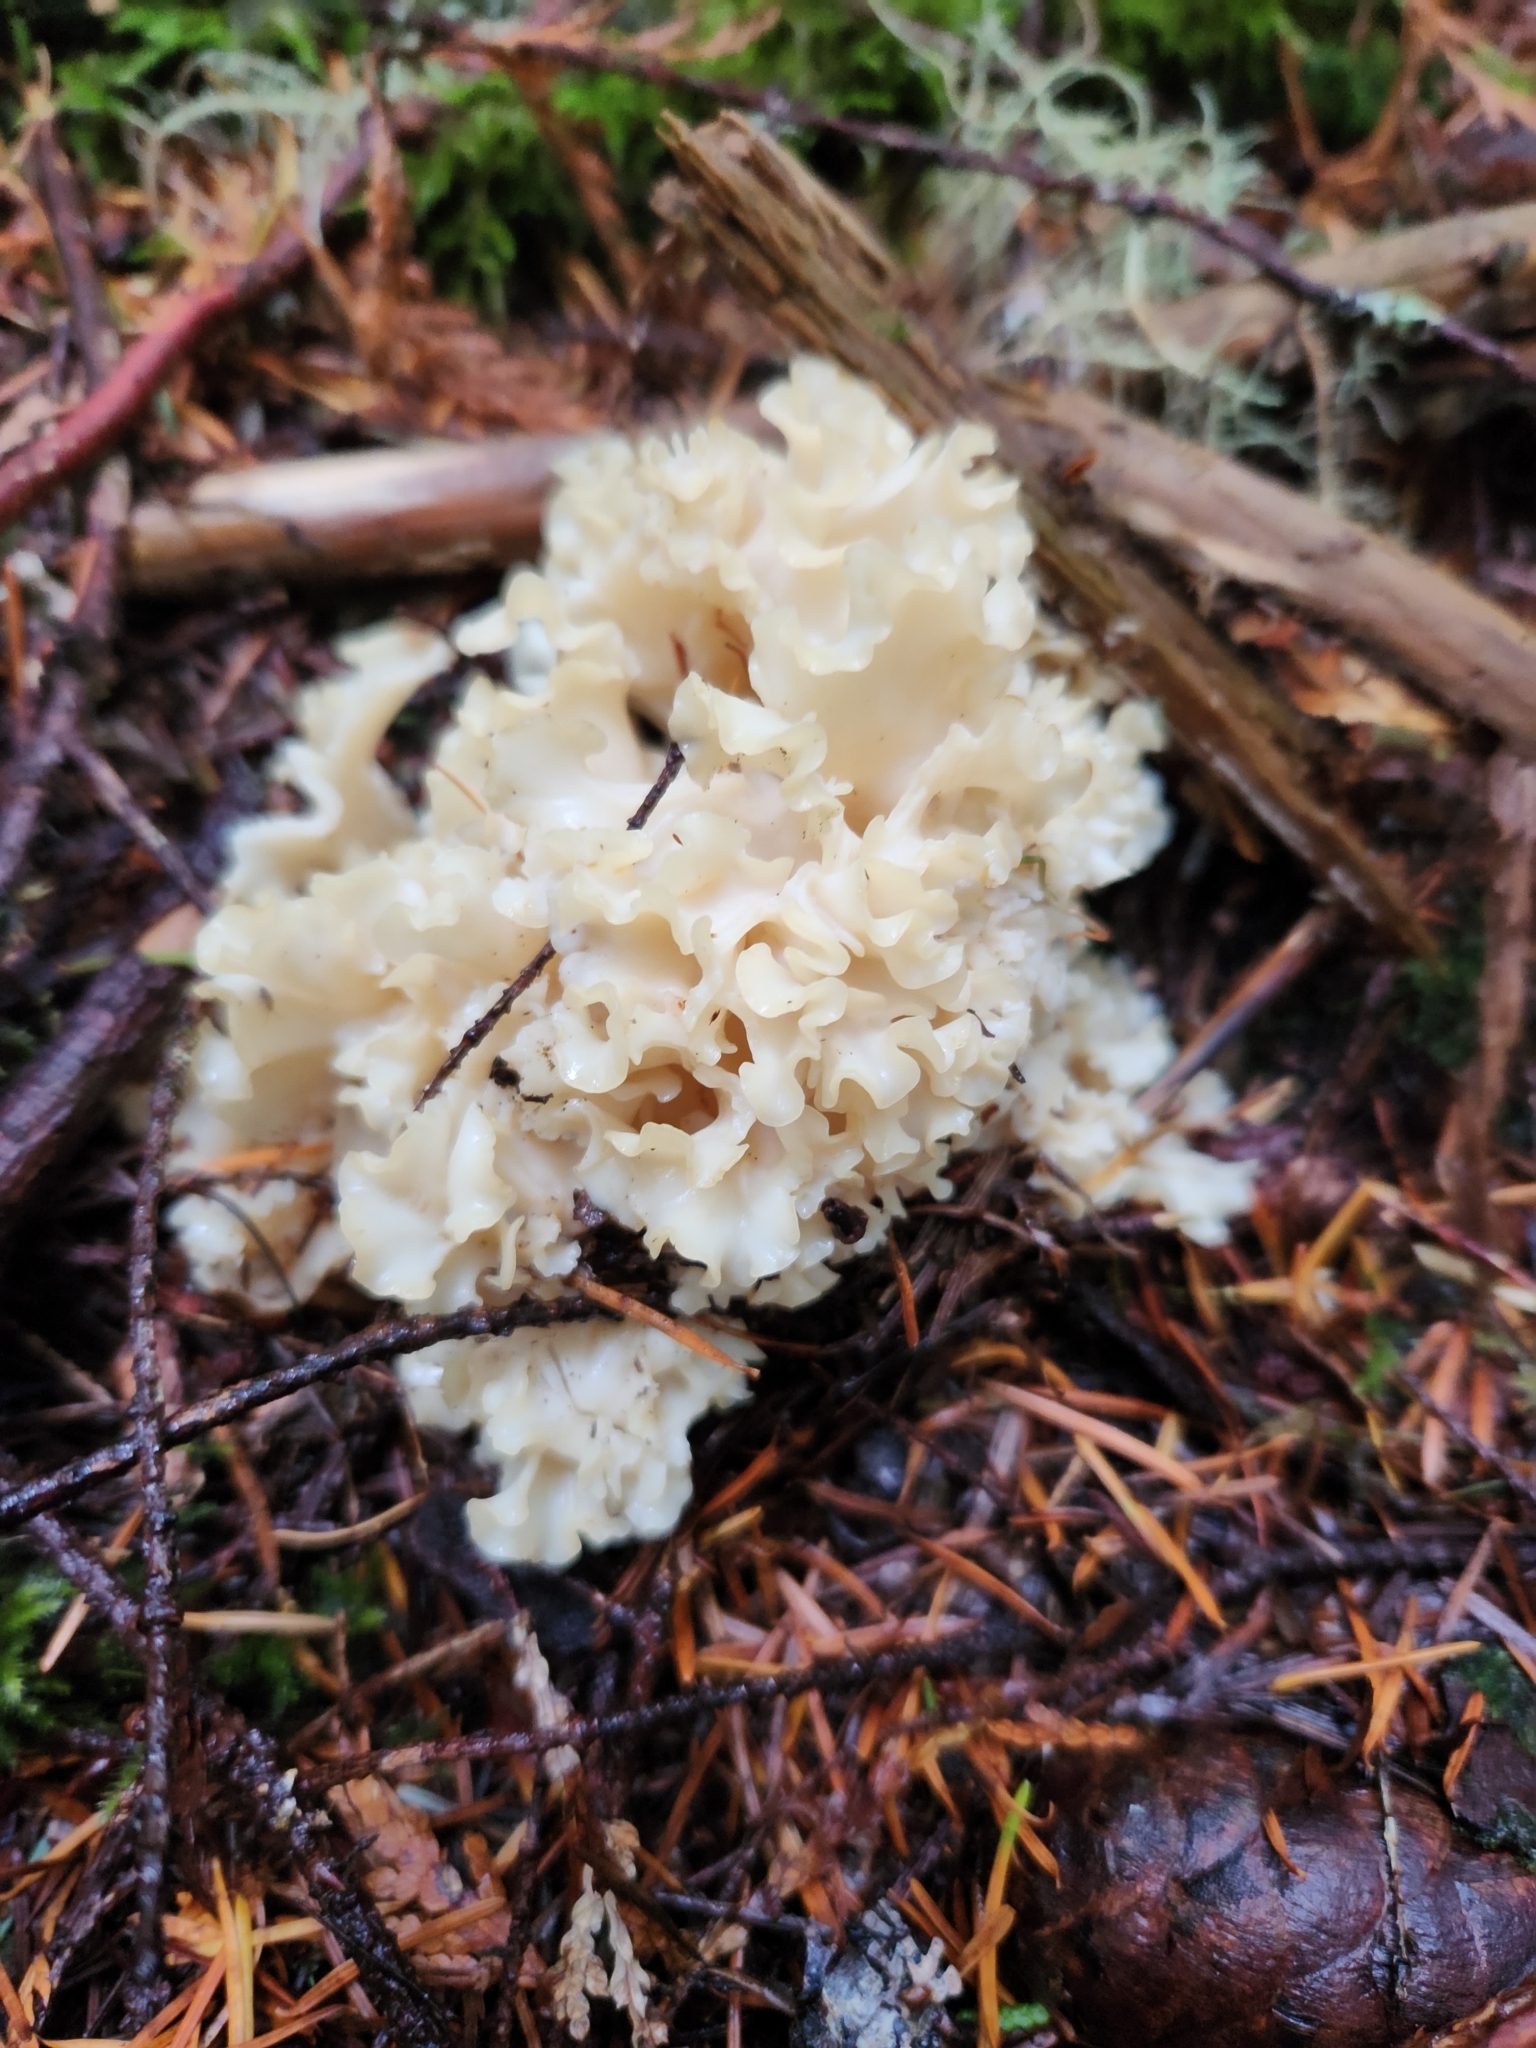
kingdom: Fungi
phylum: Basidiomycota
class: Agaricomycetes
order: Polyporales
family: Sparassidaceae
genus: Sparassis
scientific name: Sparassis radicata
